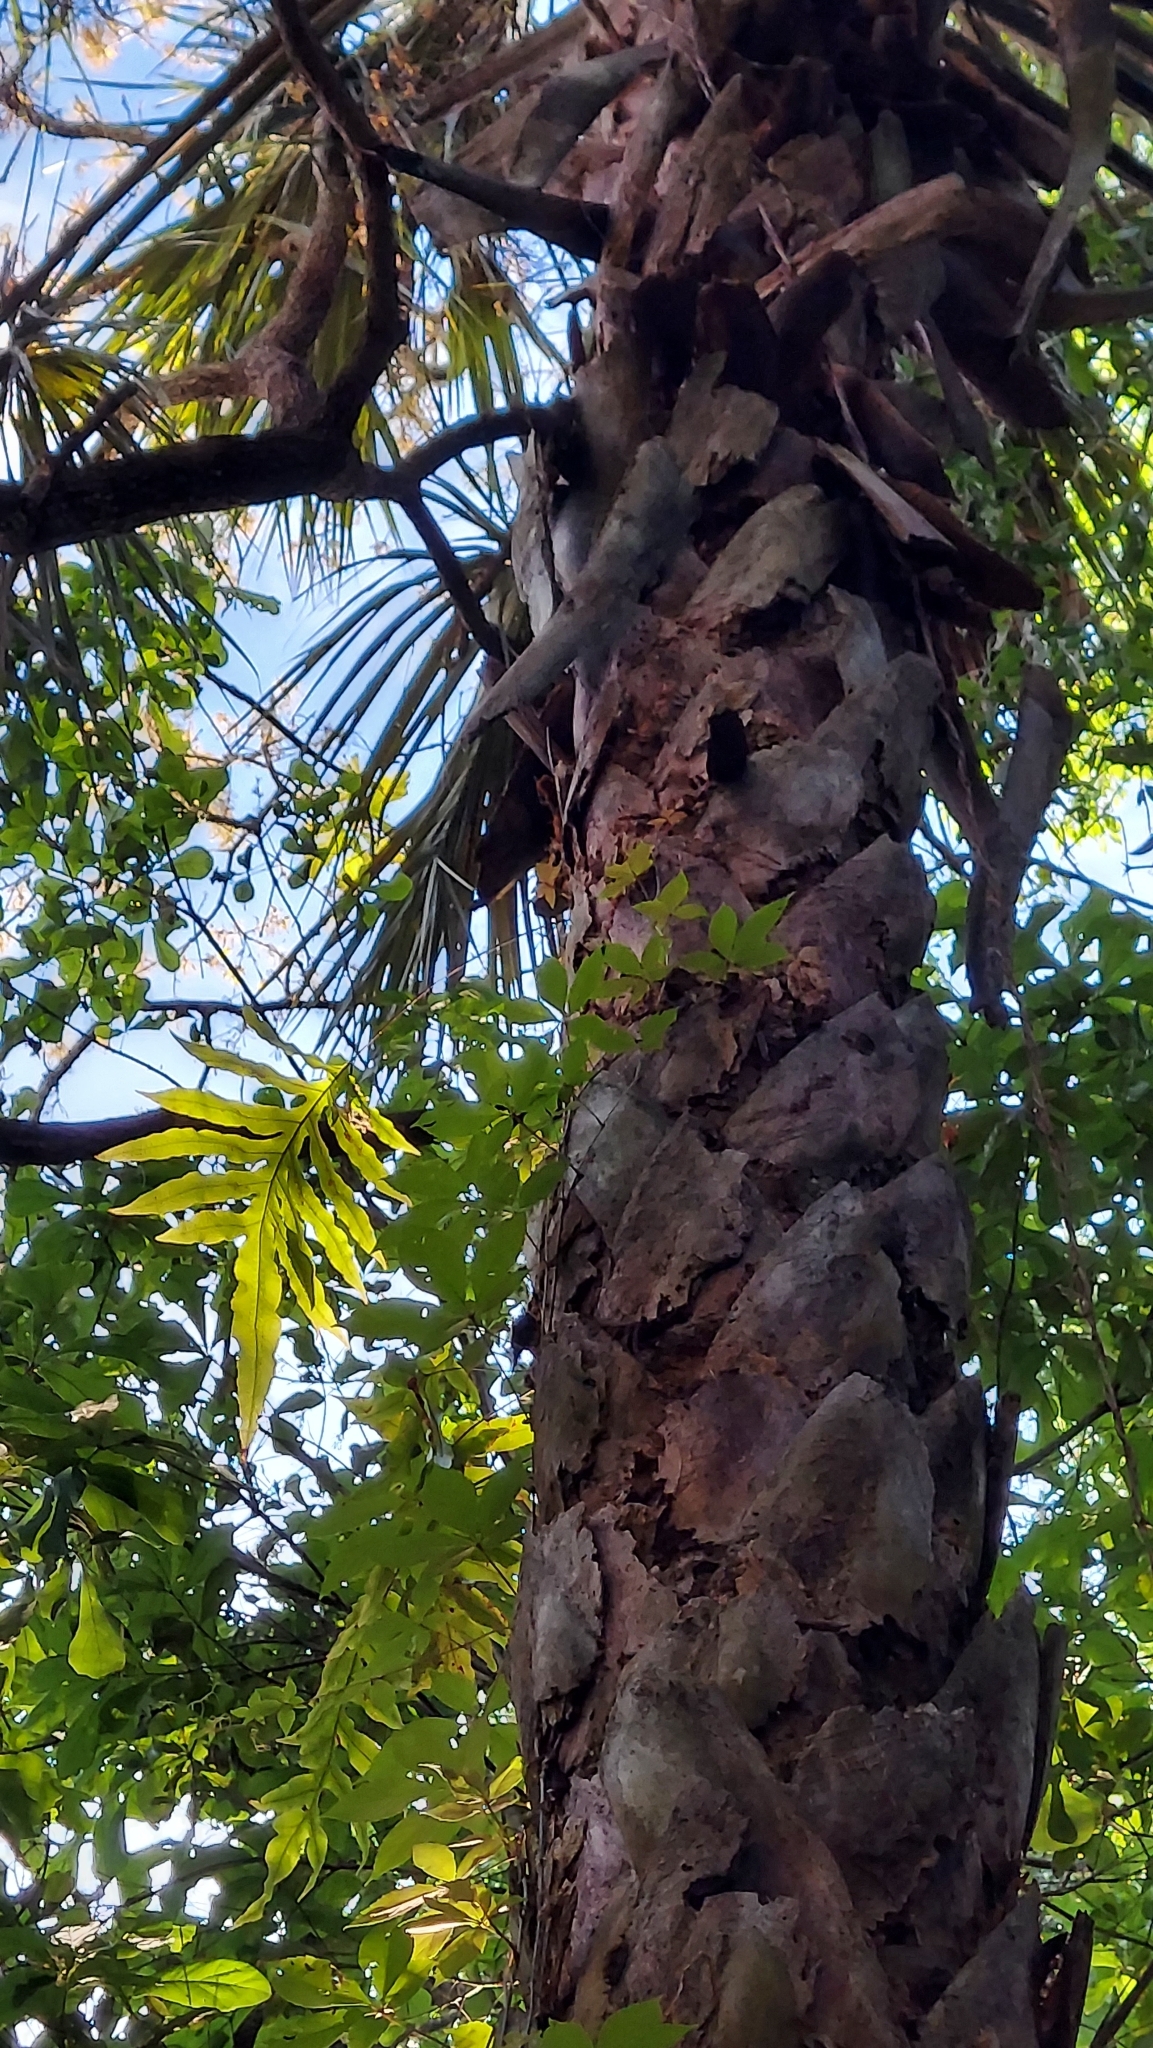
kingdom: Plantae
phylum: Tracheophyta
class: Polypodiopsida
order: Polypodiales
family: Polypodiaceae
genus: Phlebodium
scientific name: Phlebodium aureum
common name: Gold-foot fern
